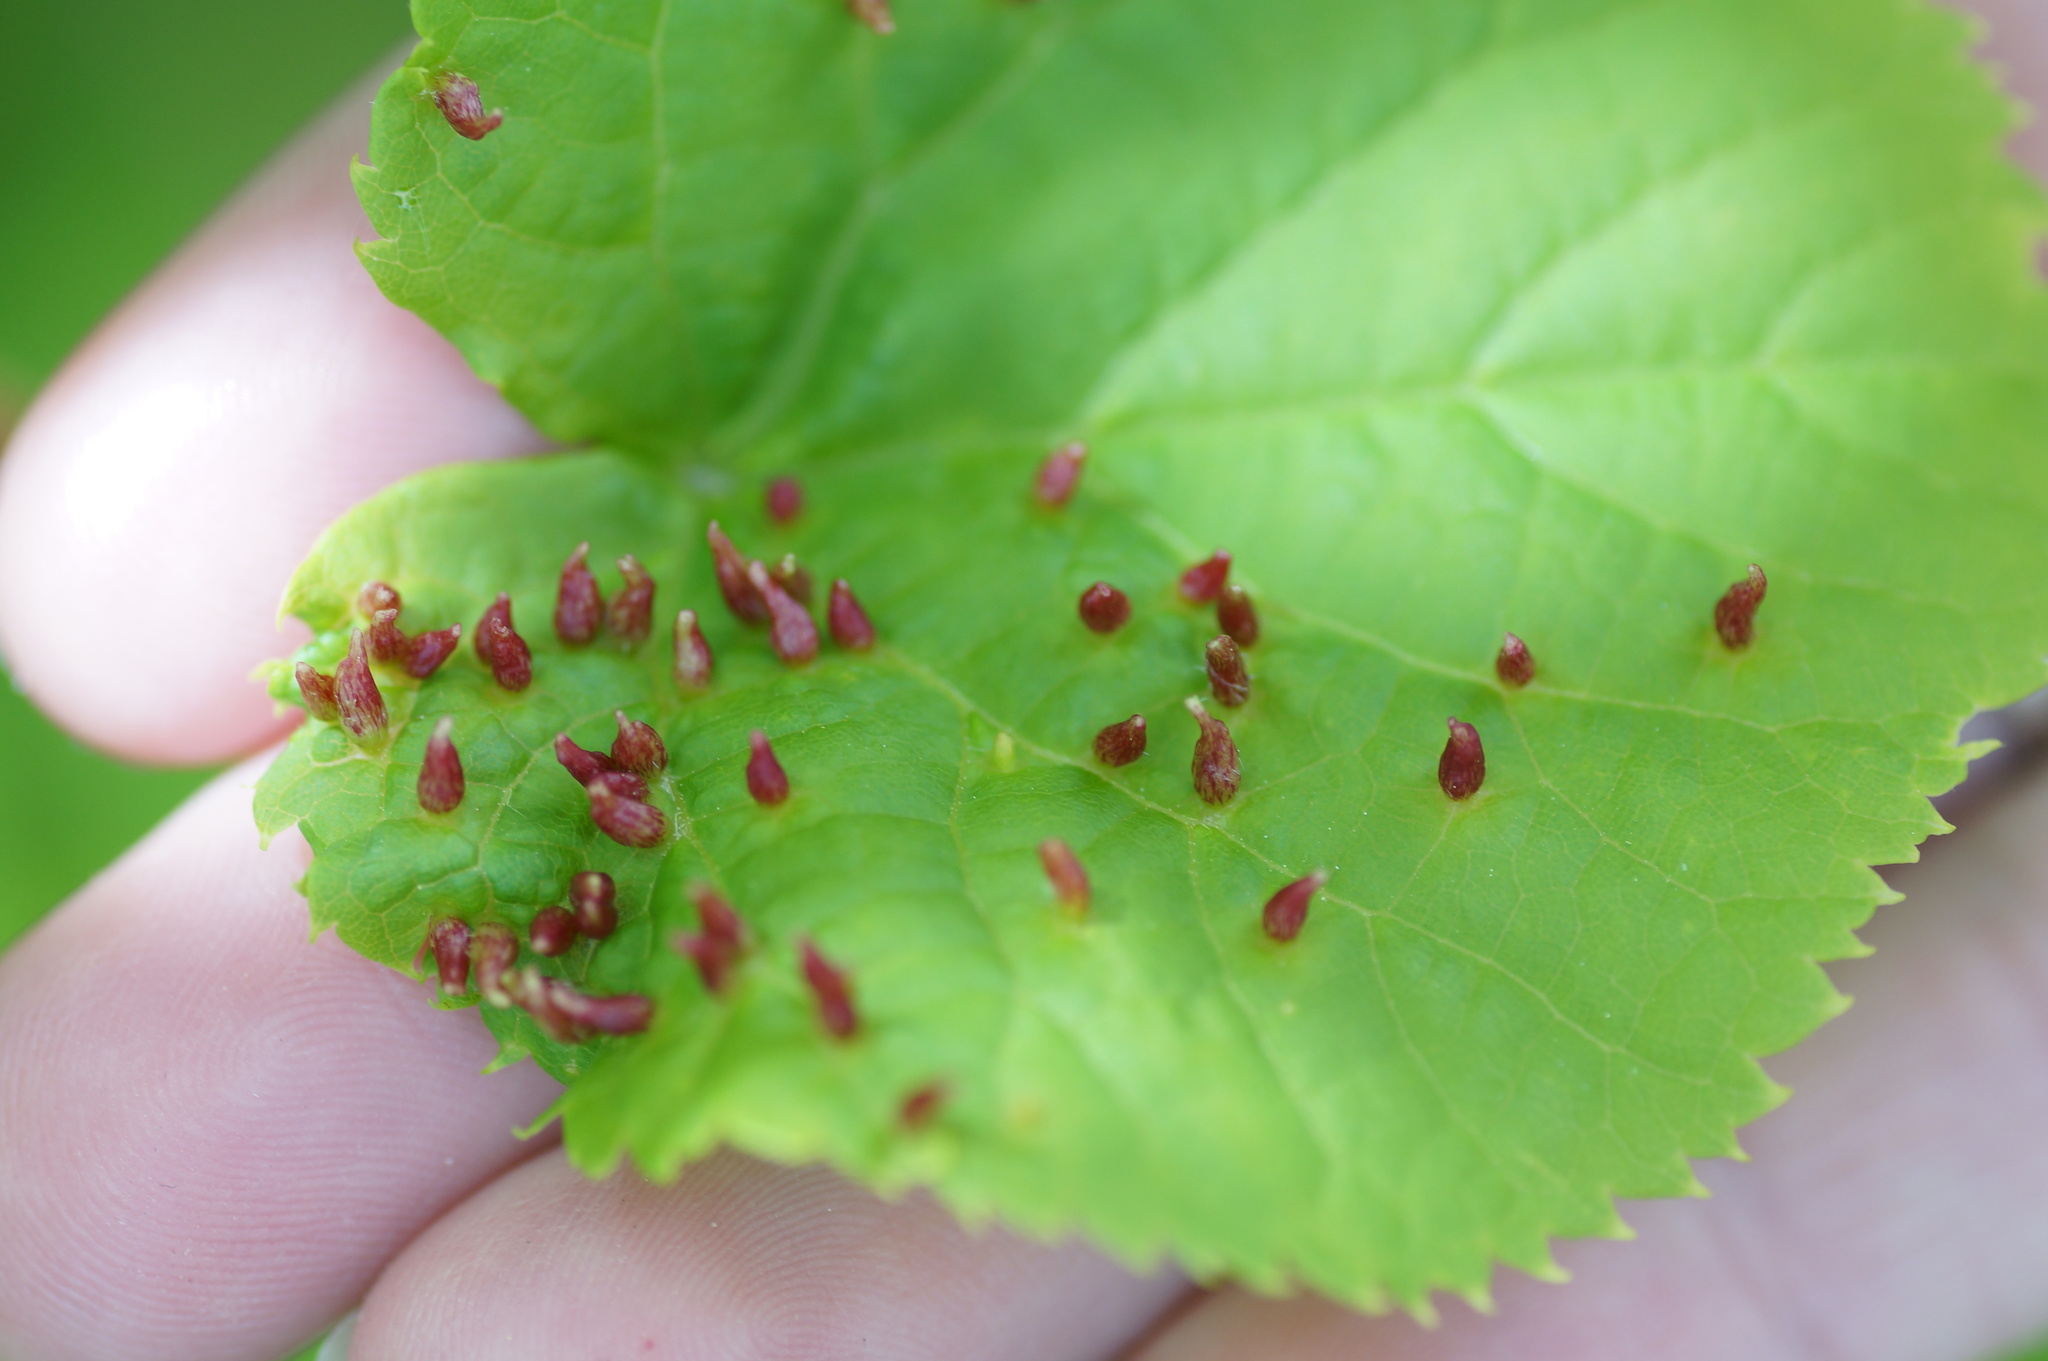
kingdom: Animalia
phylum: Arthropoda
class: Arachnida
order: Trombidiformes
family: Eriophyidae
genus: Eriophyes
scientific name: Eriophyes tiliae
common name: Red nail gall mite
